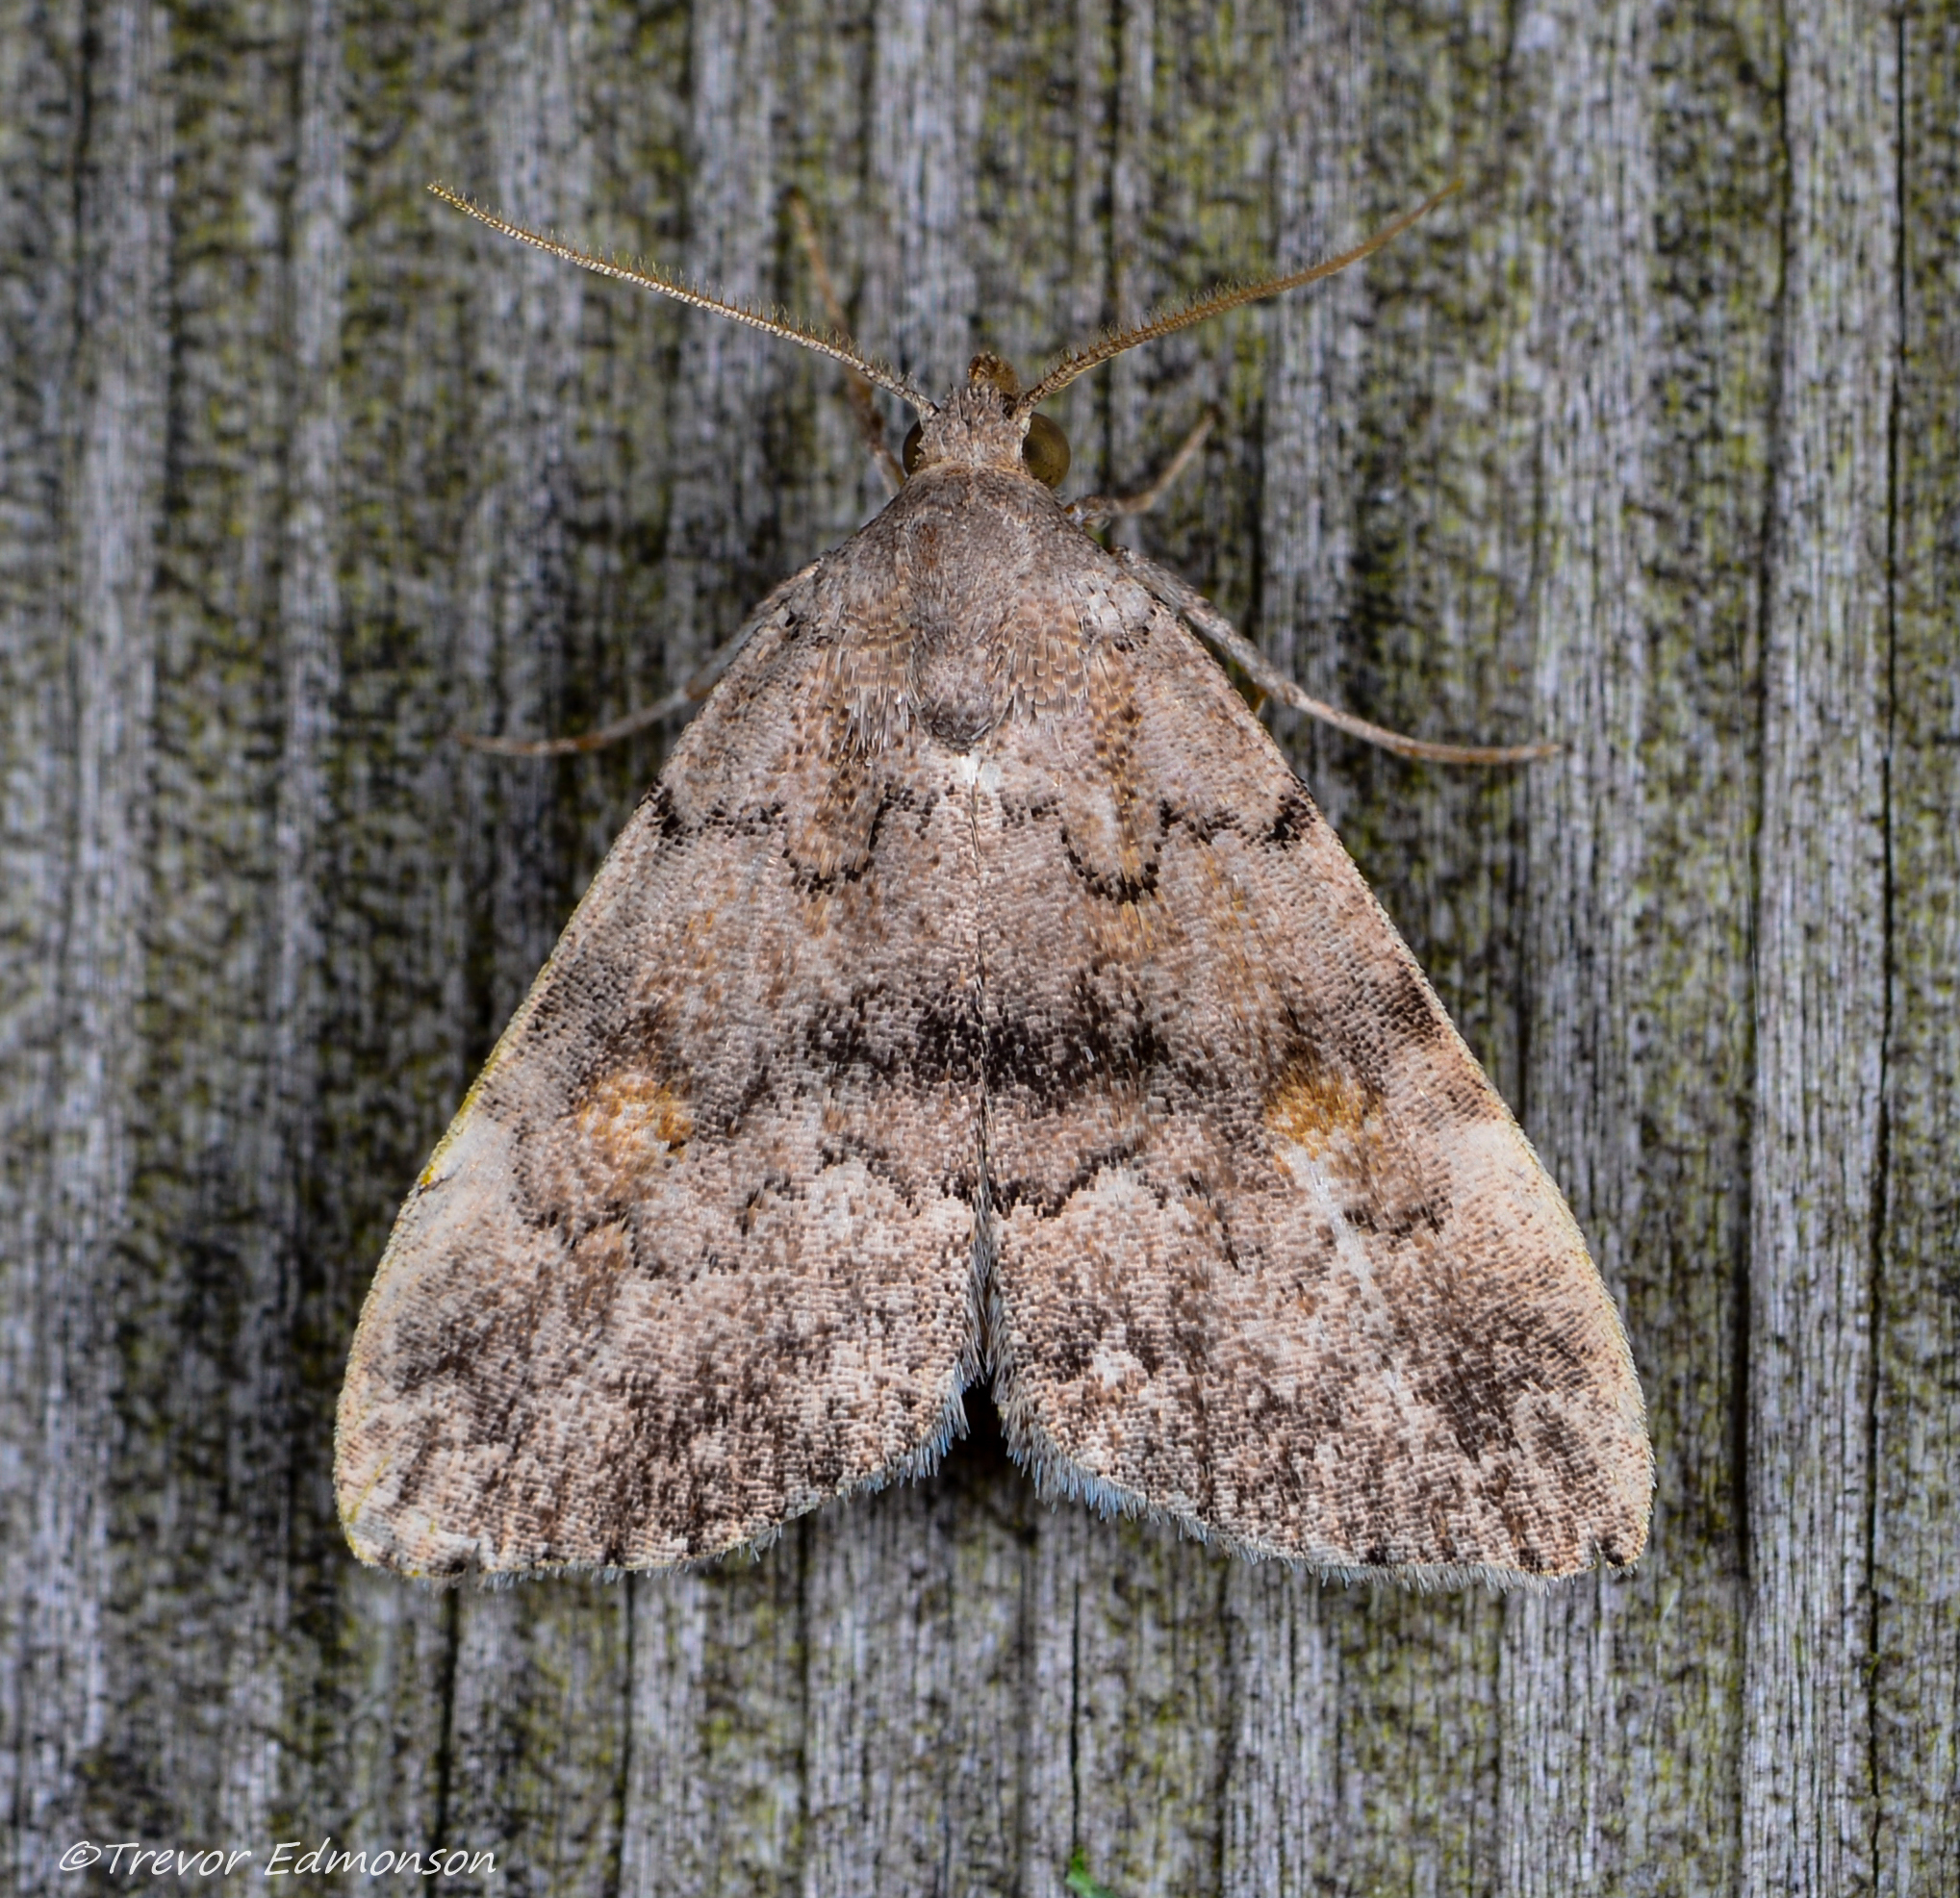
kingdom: Animalia
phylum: Arthropoda
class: Insecta
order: Lepidoptera
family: Erebidae
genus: Idia
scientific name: Idia aemula
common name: Common idia moth
